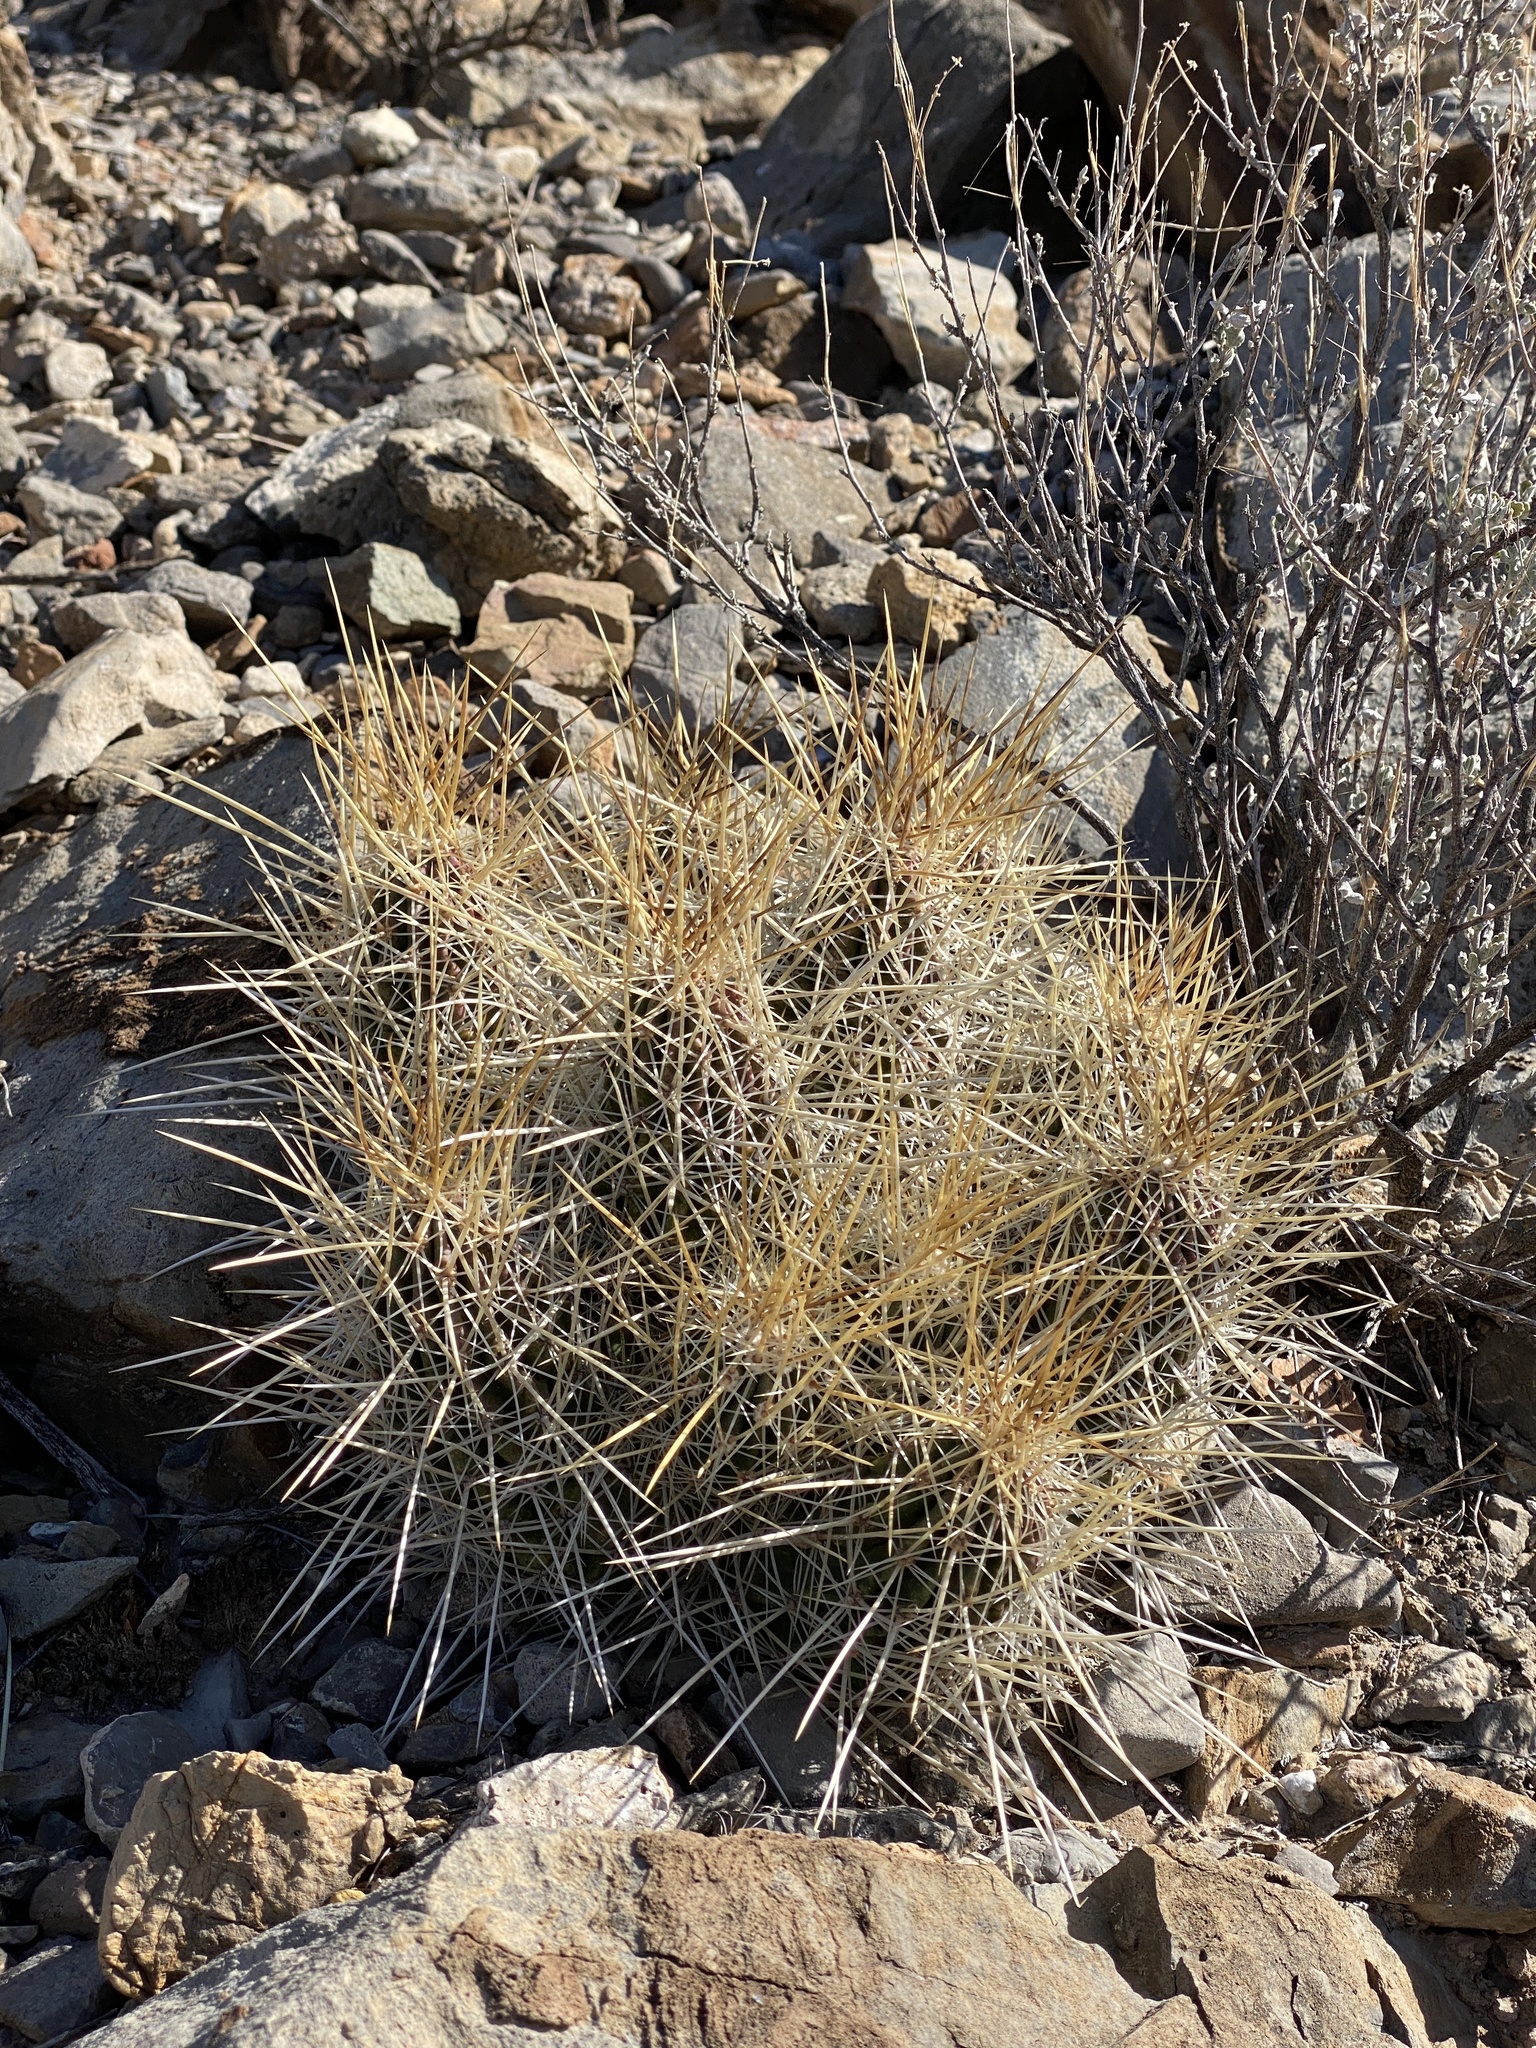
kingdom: Plantae
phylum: Tracheophyta
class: Magnoliopsida
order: Caryophyllales
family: Cactaceae
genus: Echinocereus
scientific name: Echinocereus stramineus
